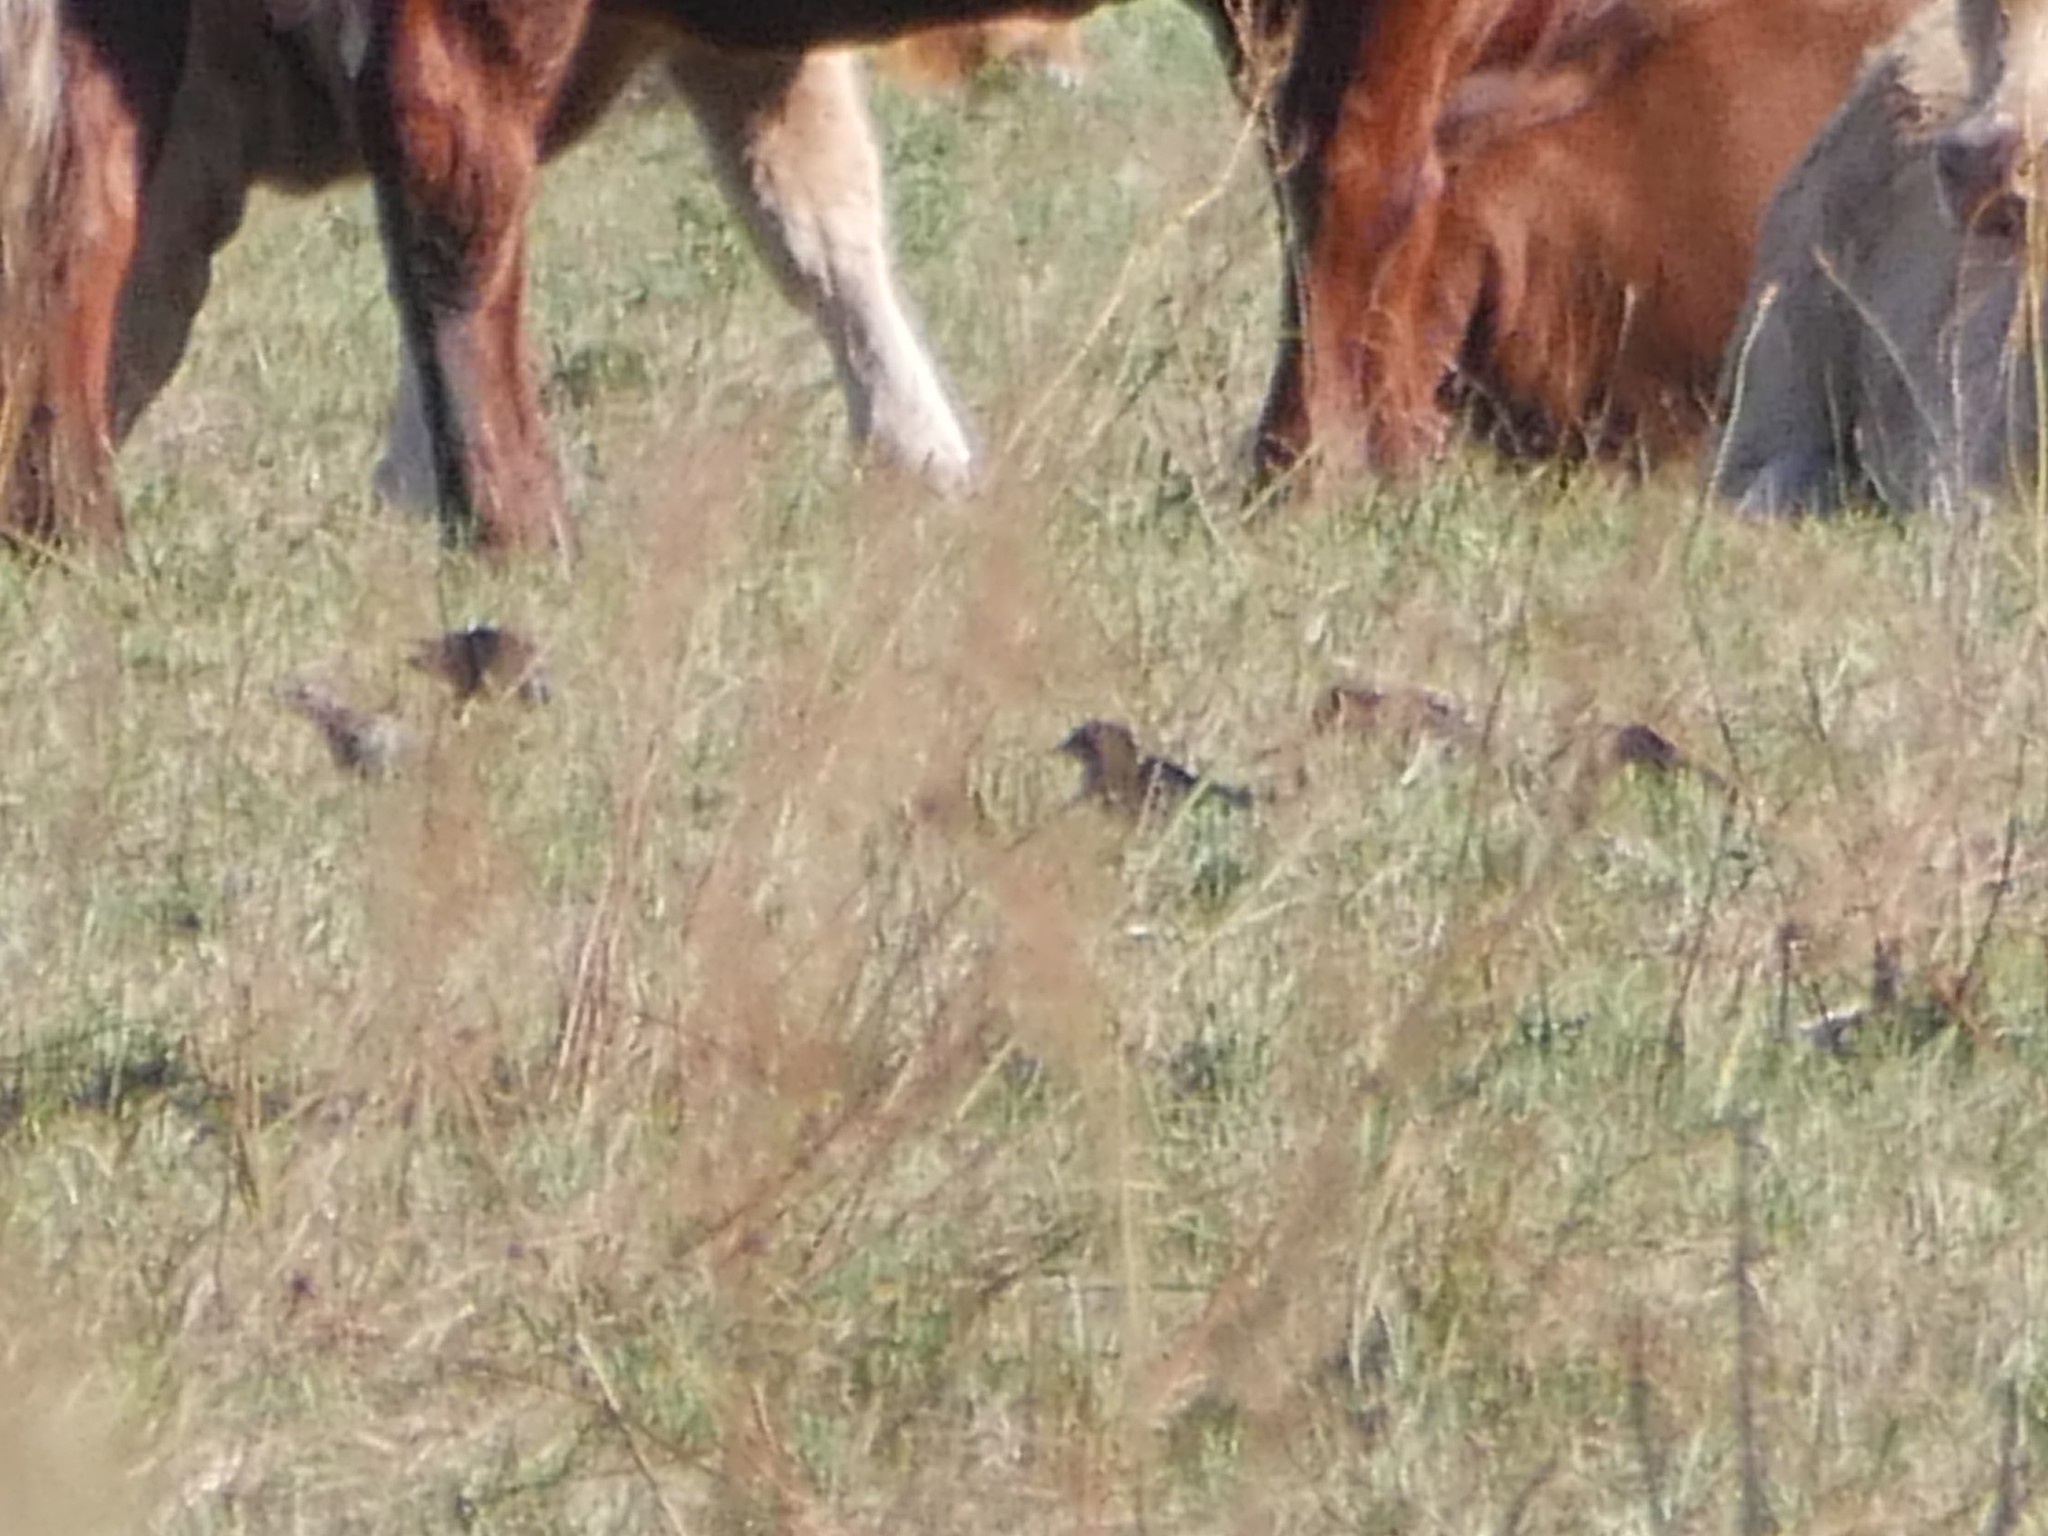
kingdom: Animalia
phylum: Chordata
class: Aves
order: Passeriformes
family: Sturnidae
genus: Sturnus
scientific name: Sturnus vulgaris
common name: Common starling
